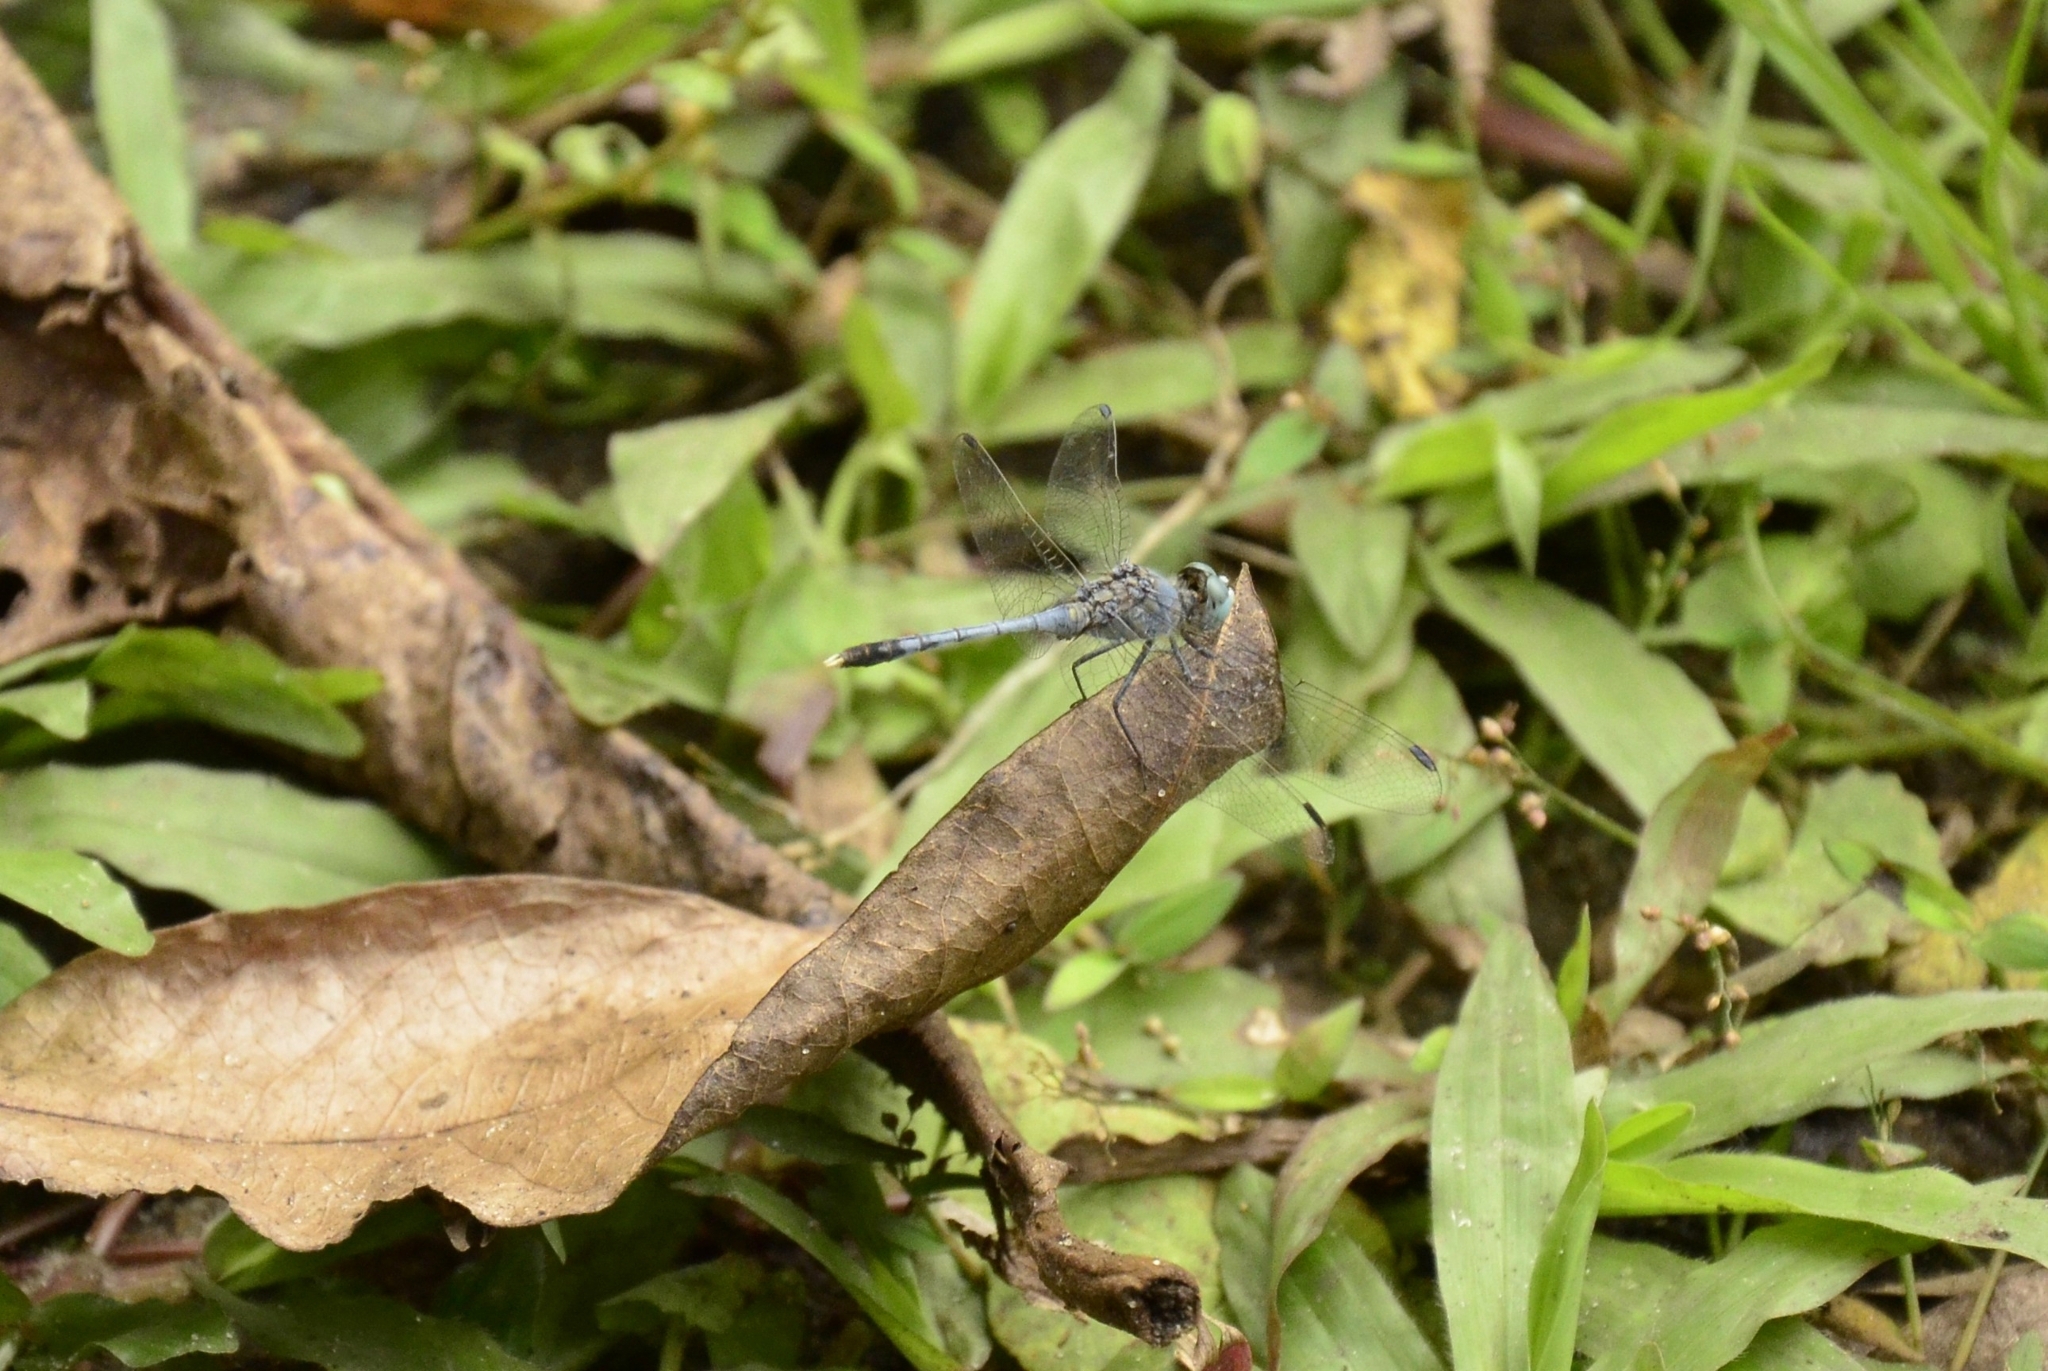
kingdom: Animalia
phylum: Arthropoda
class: Insecta
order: Odonata
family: Libellulidae
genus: Diplacodes
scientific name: Diplacodes trivialis
